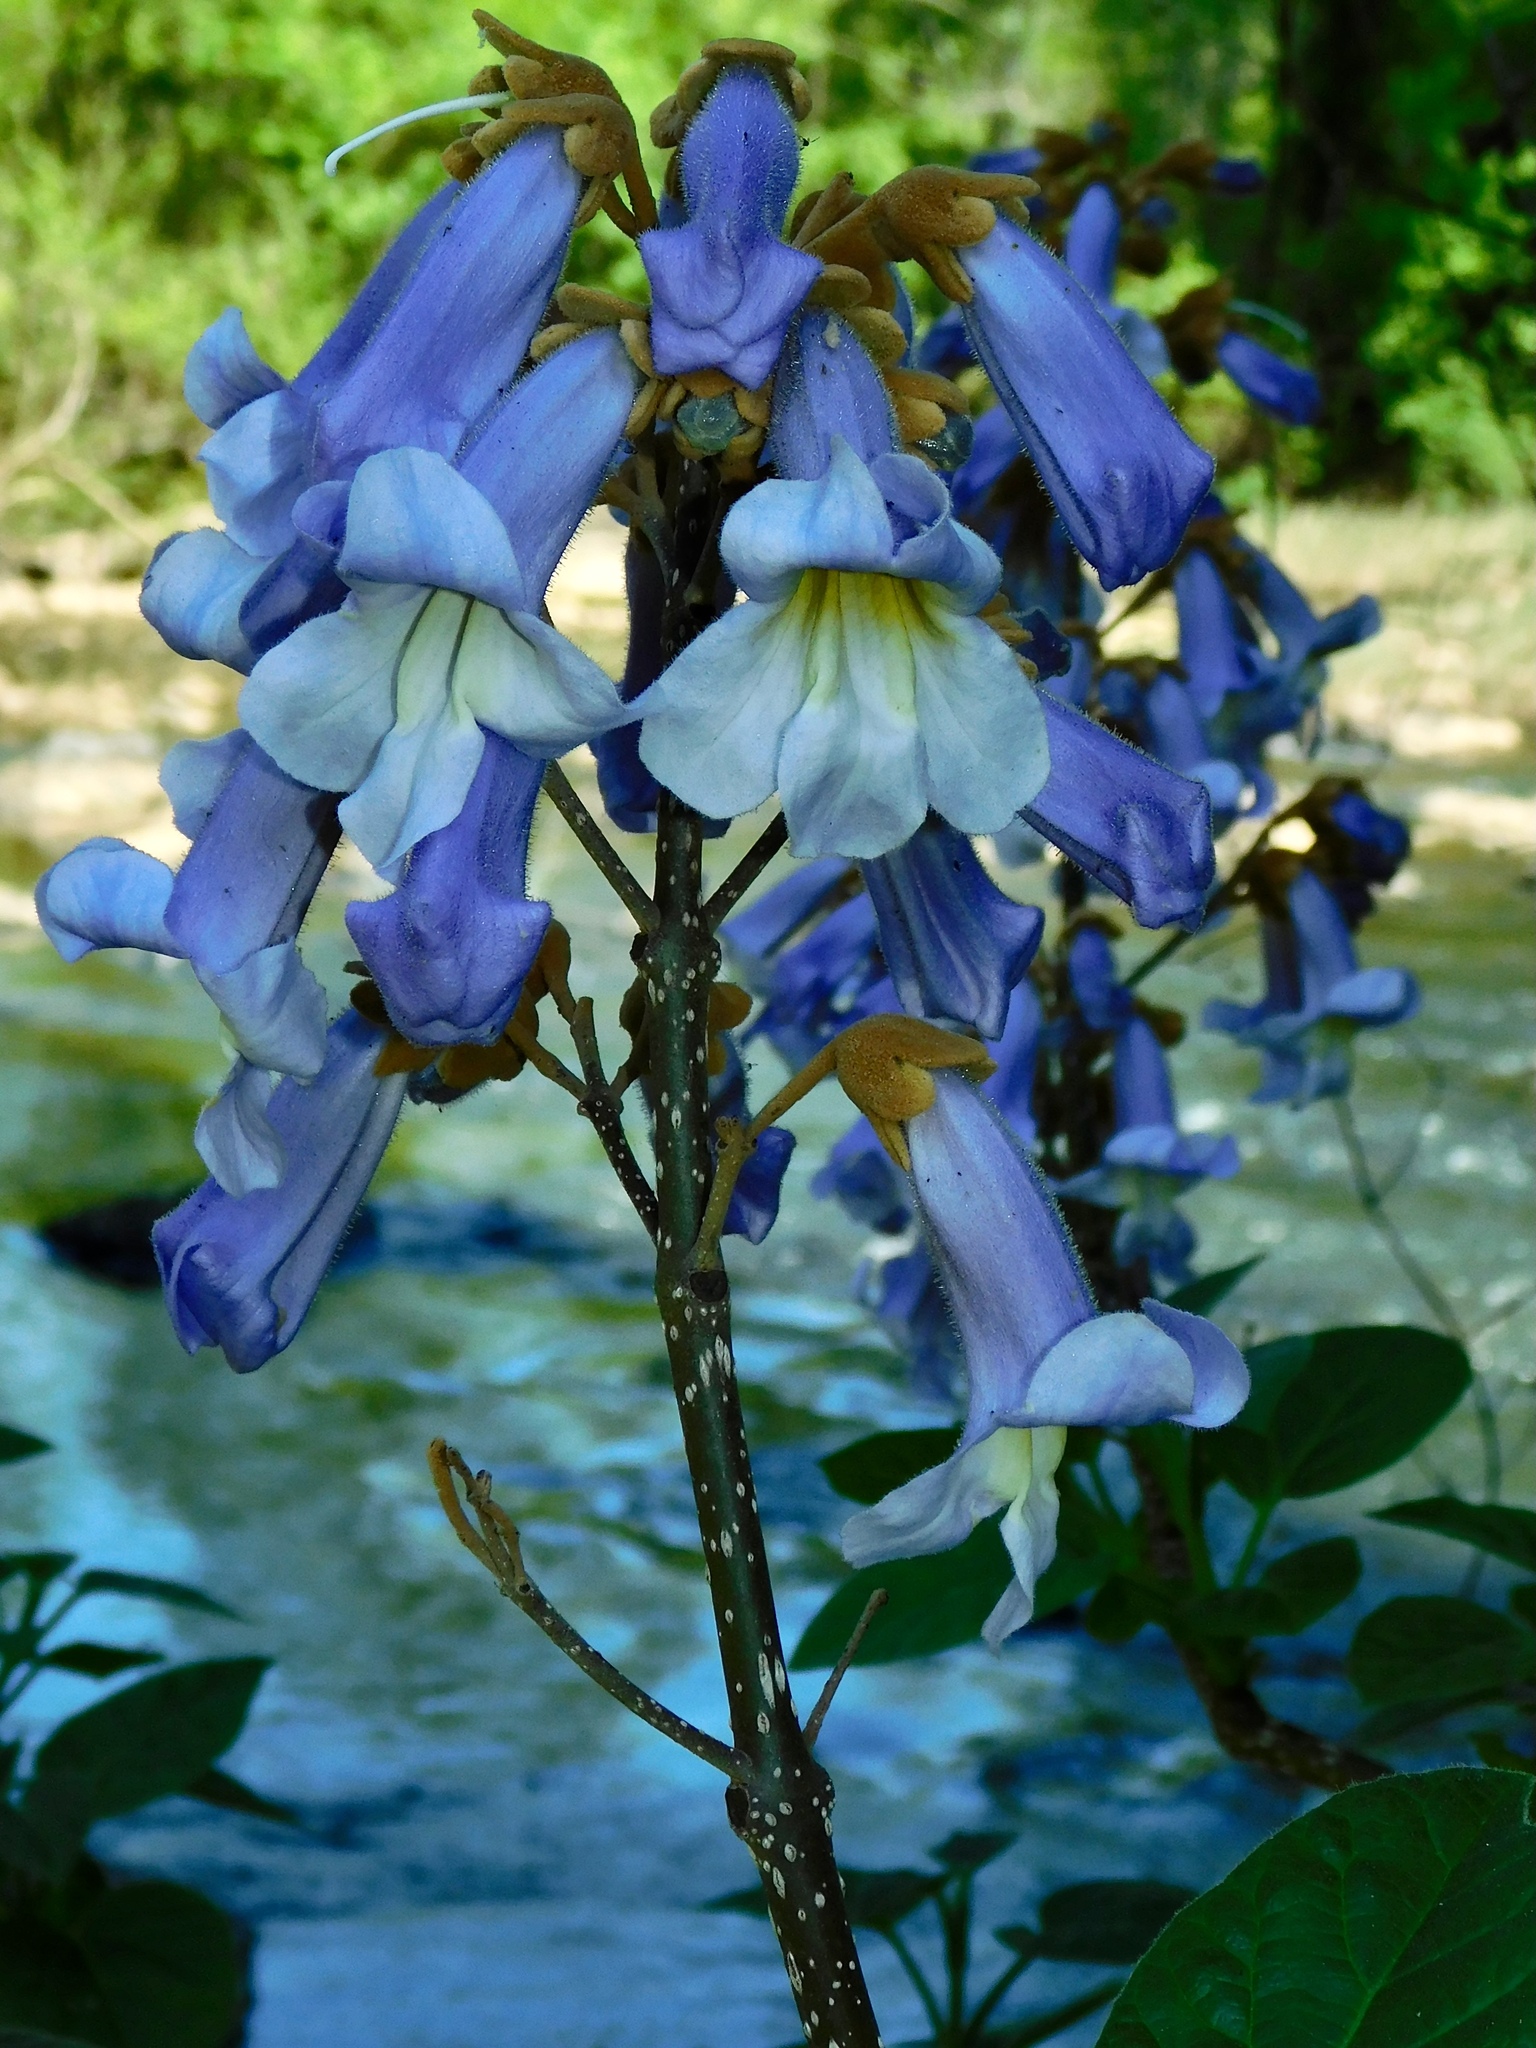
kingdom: Plantae
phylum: Tracheophyta
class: Magnoliopsida
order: Lamiales
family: Paulowniaceae
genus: Paulownia
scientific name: Paulownia tomentosa
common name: Foxglove-tree
